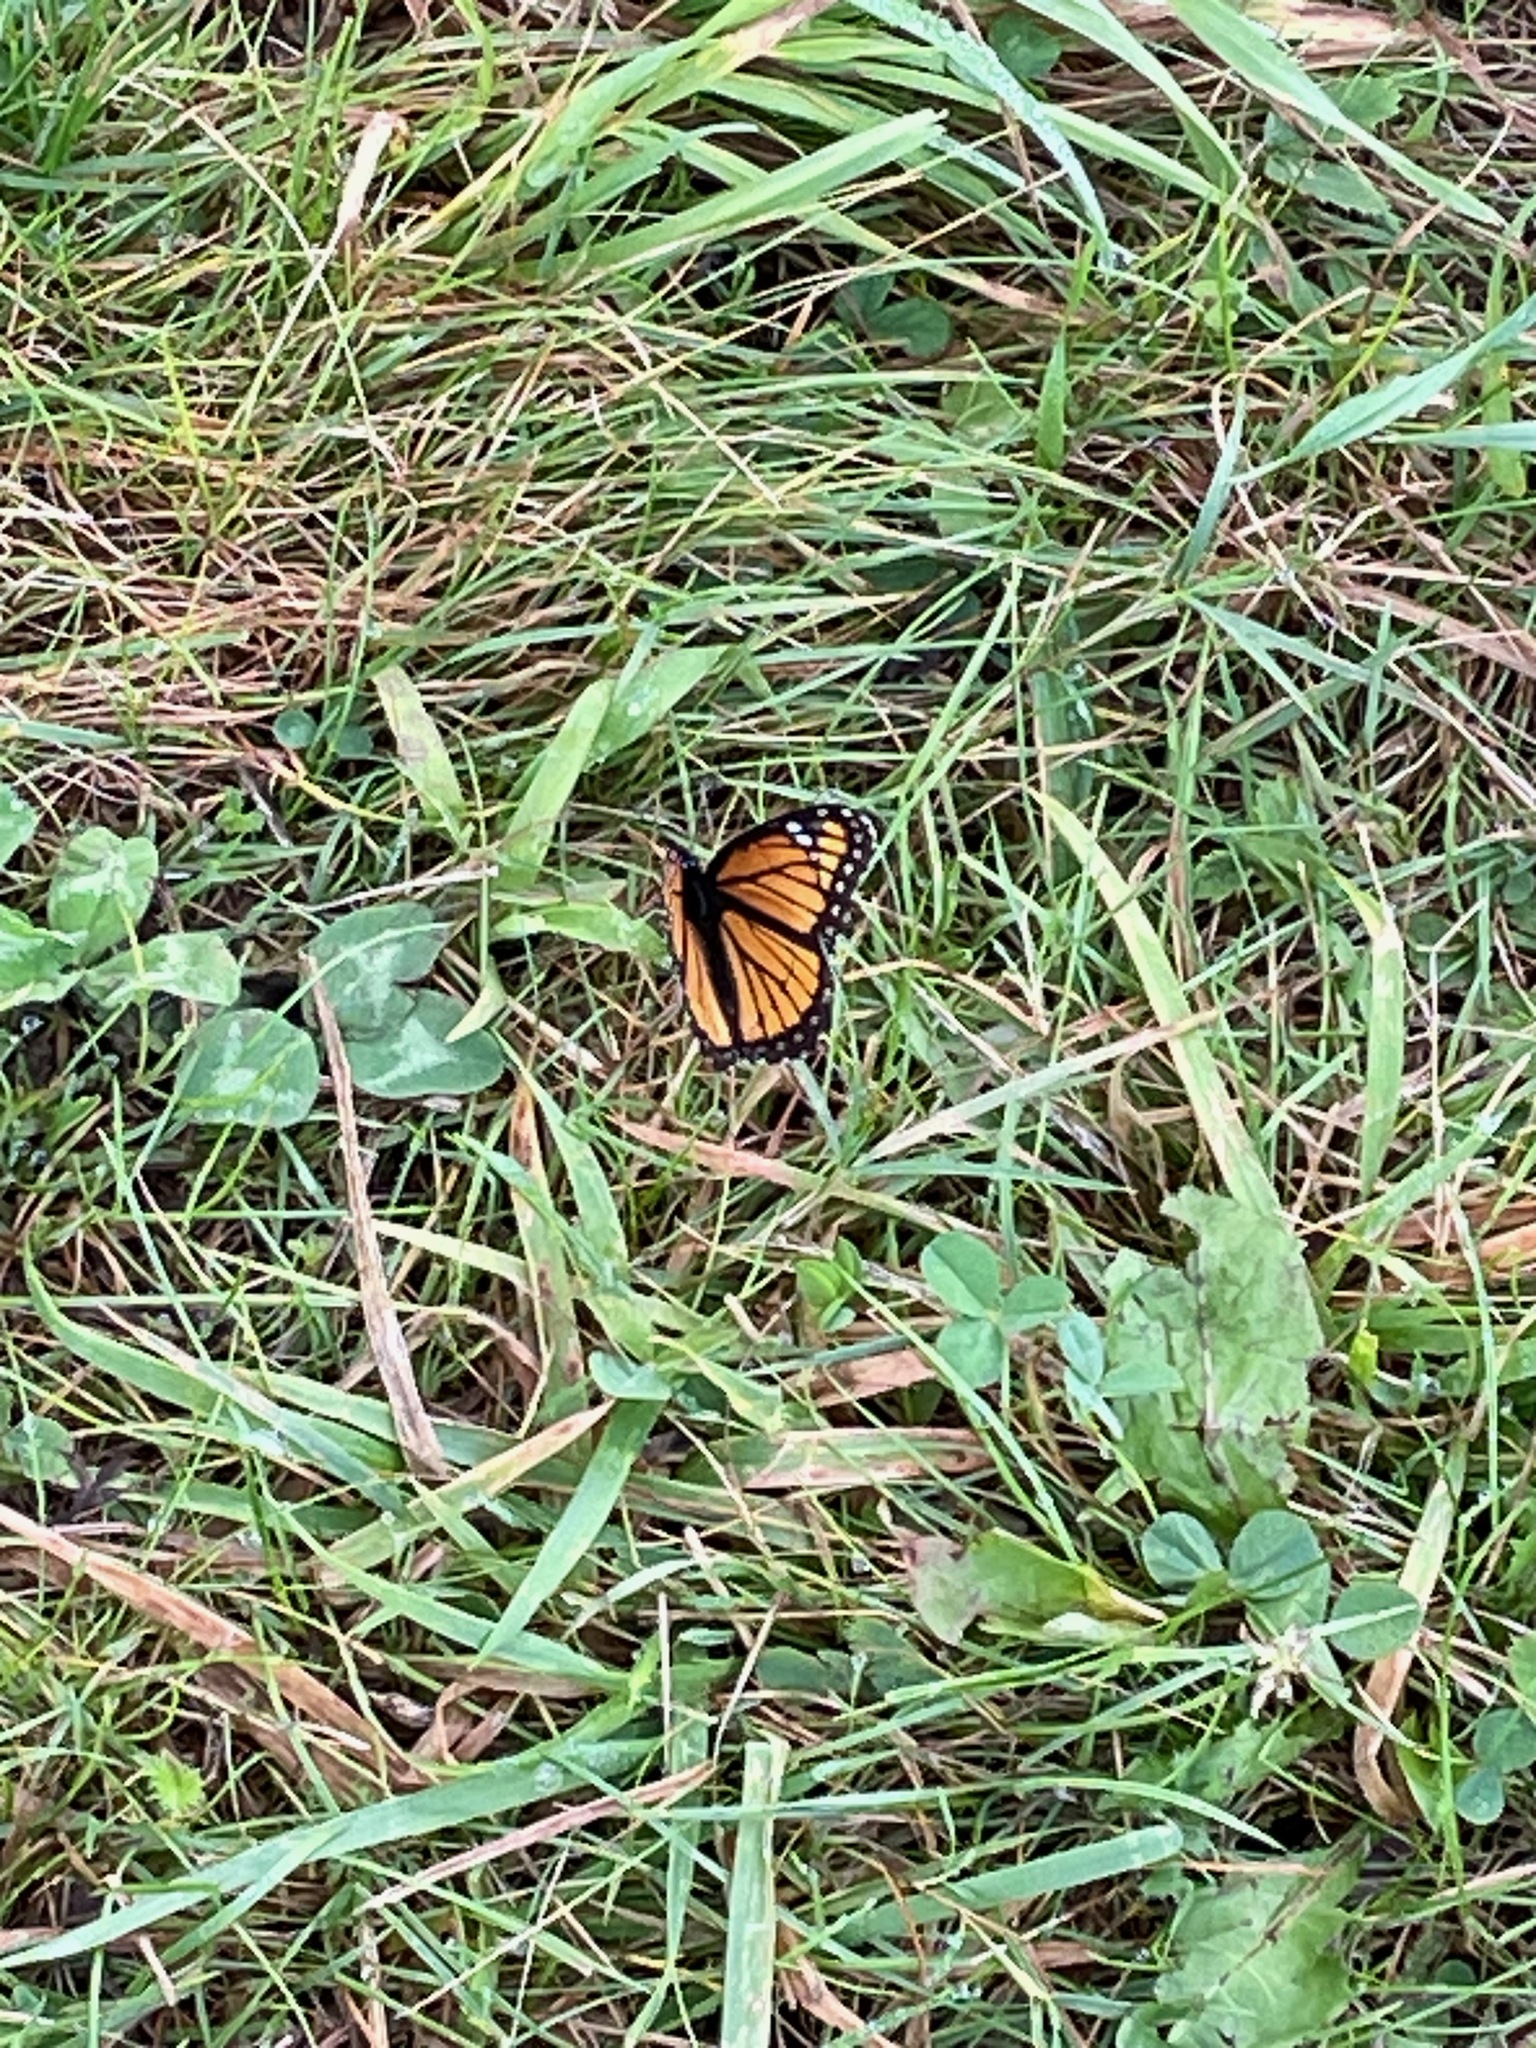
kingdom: Animalia
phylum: Arthropoda
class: Insecta
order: Lepidoptera
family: Nymphalidae
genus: Limenitis
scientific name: Limenitis archippus
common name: Viceroy
